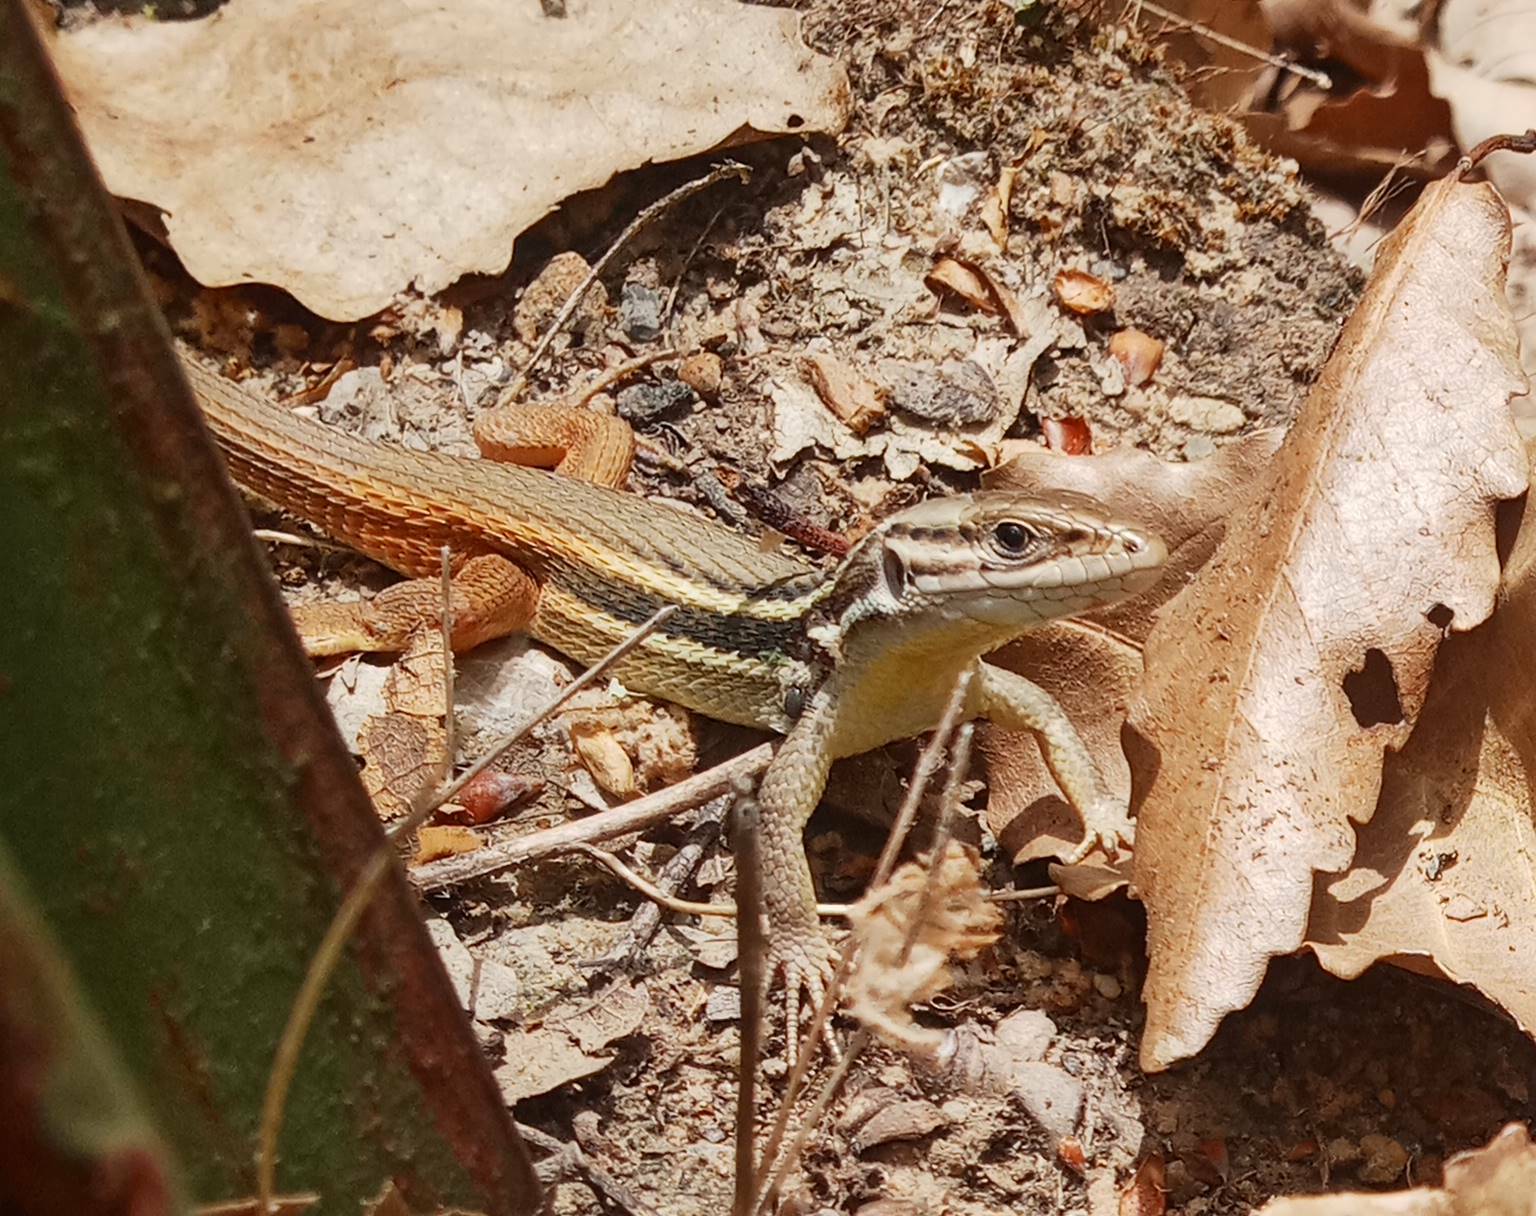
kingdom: Animalia
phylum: Chordata
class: Squamata
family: Lacertidae
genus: Psammodromus
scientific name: Psammodromus algirus
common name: Algerian psammodromus
